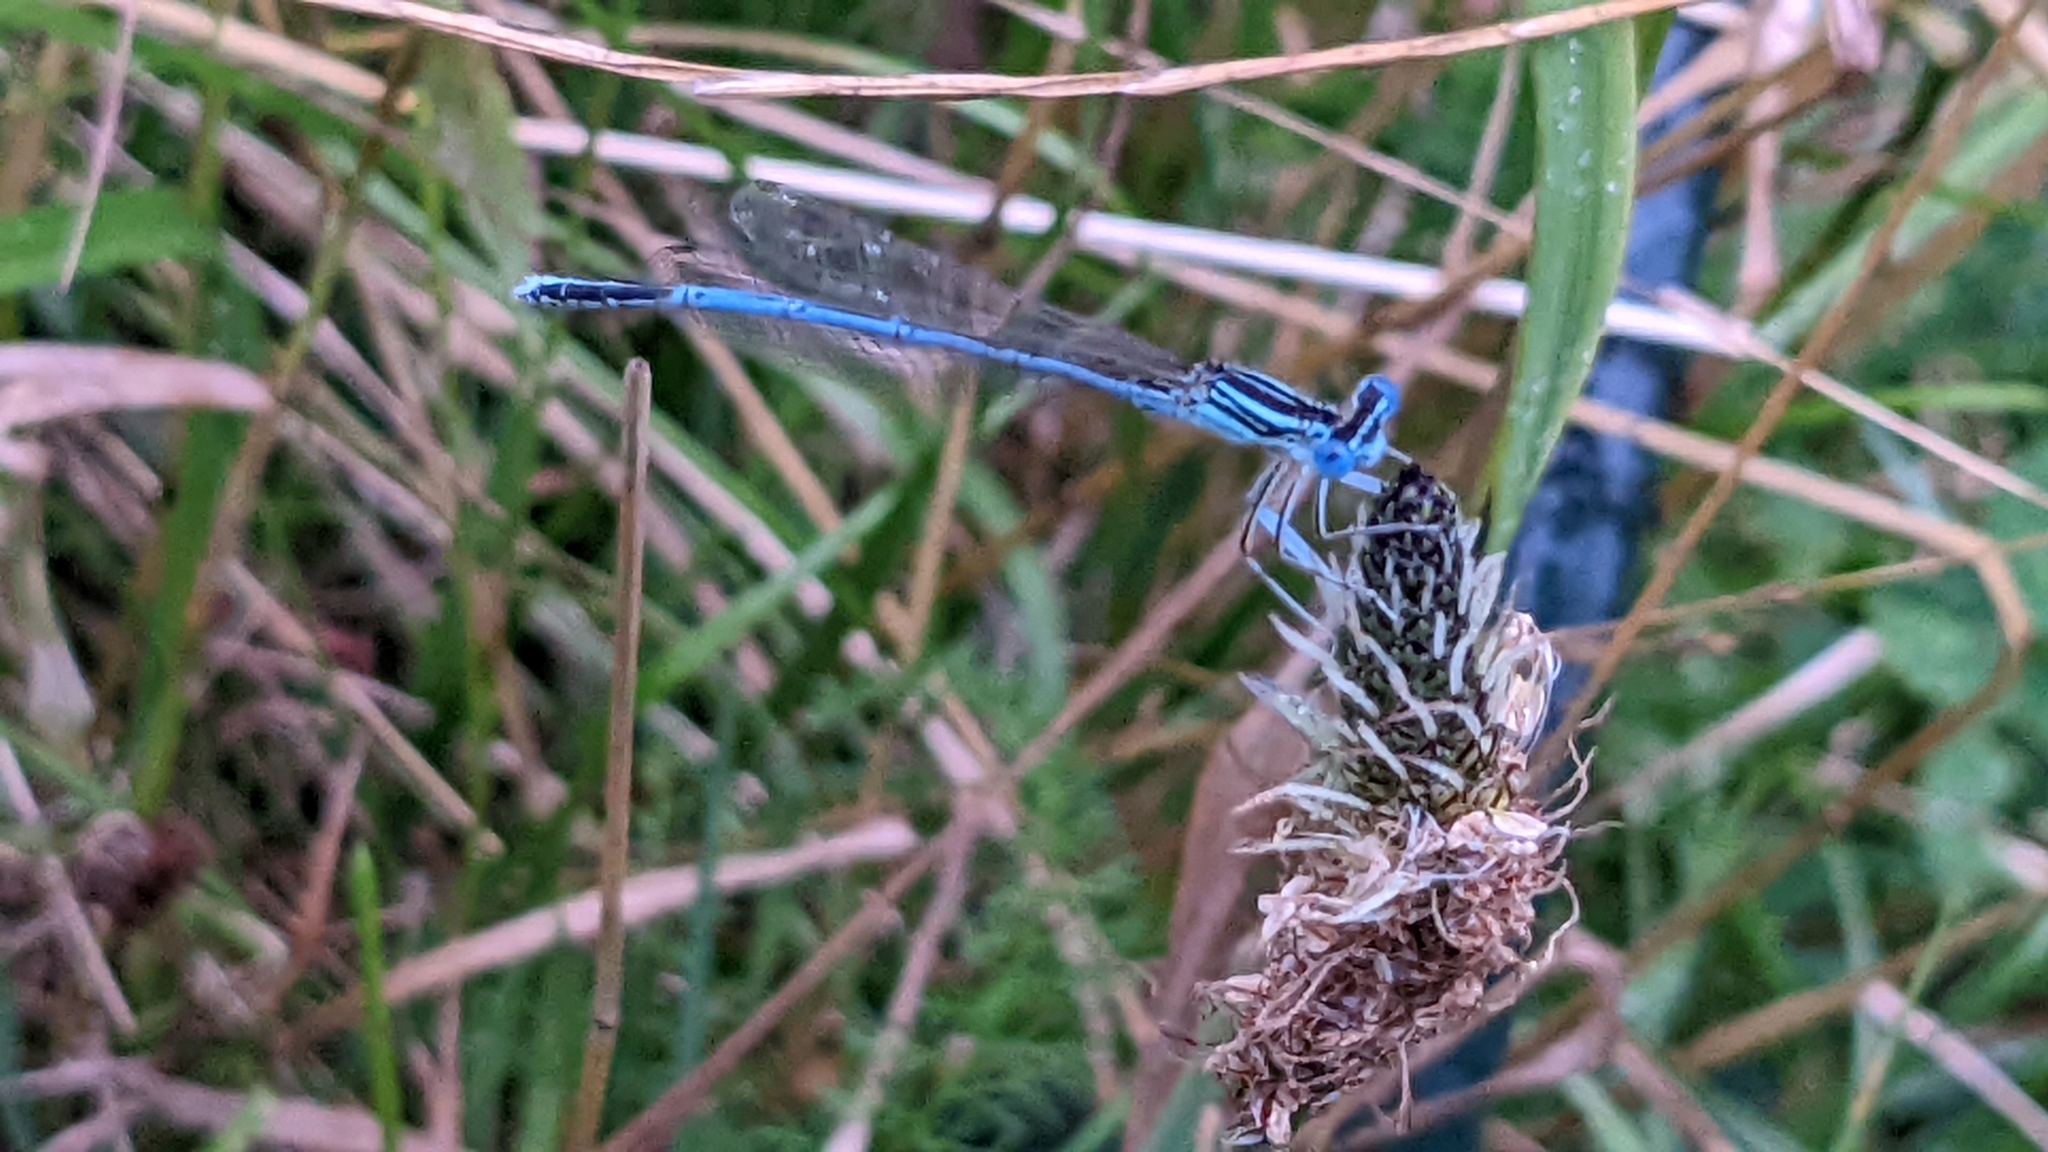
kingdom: Animalia
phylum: Arthropoda
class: Insecta
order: Odonata
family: Platycnemididae
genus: Platycnemis
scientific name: Platycnemis pennipes
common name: White-legged damselfly
